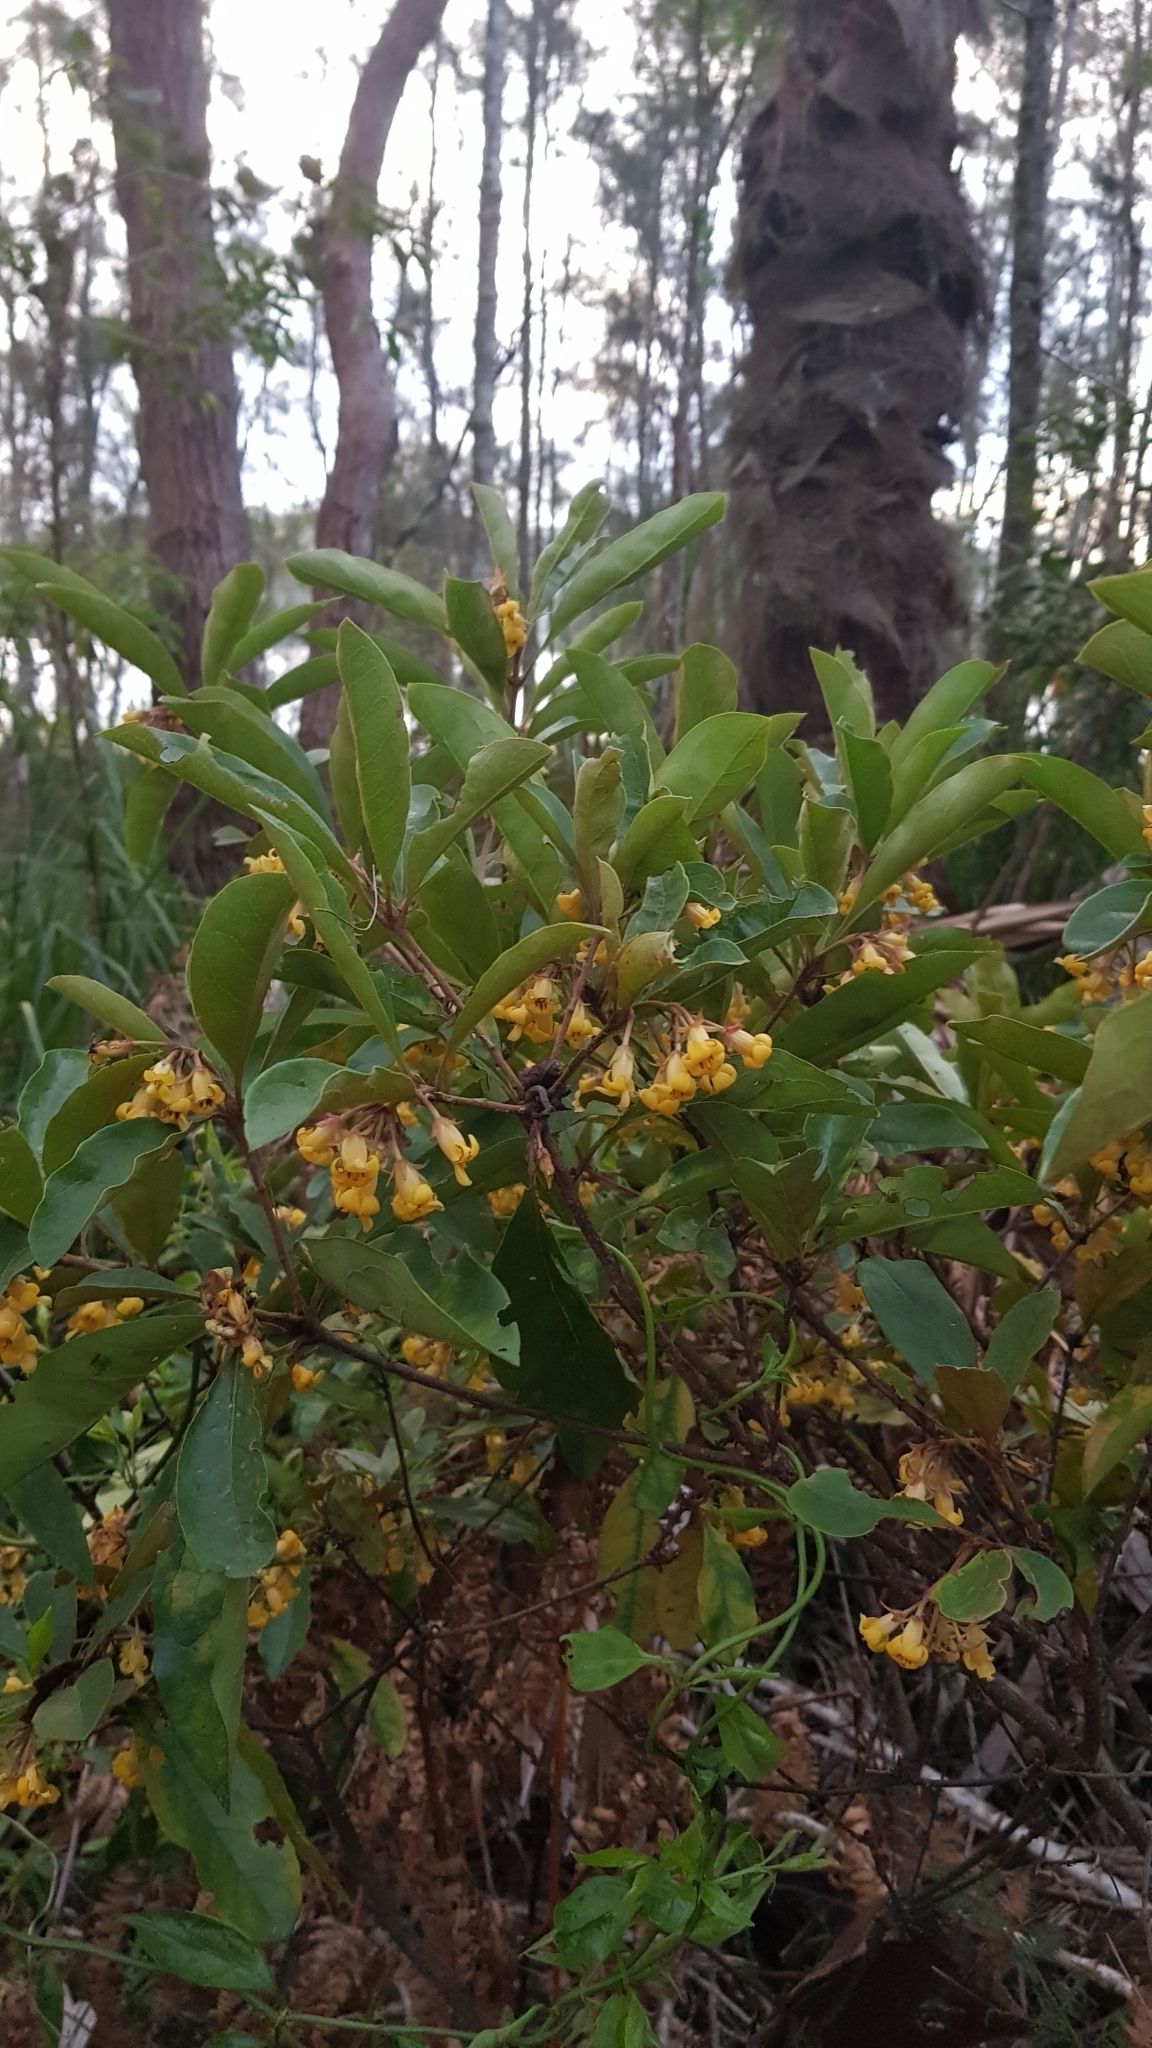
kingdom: Plantae
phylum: Tracheophyta
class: Magnoliopsida
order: Apiales
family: Pittosporaceae
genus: Pittosporum
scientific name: Pittosporum revolutum
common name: Brisbane-laurel
